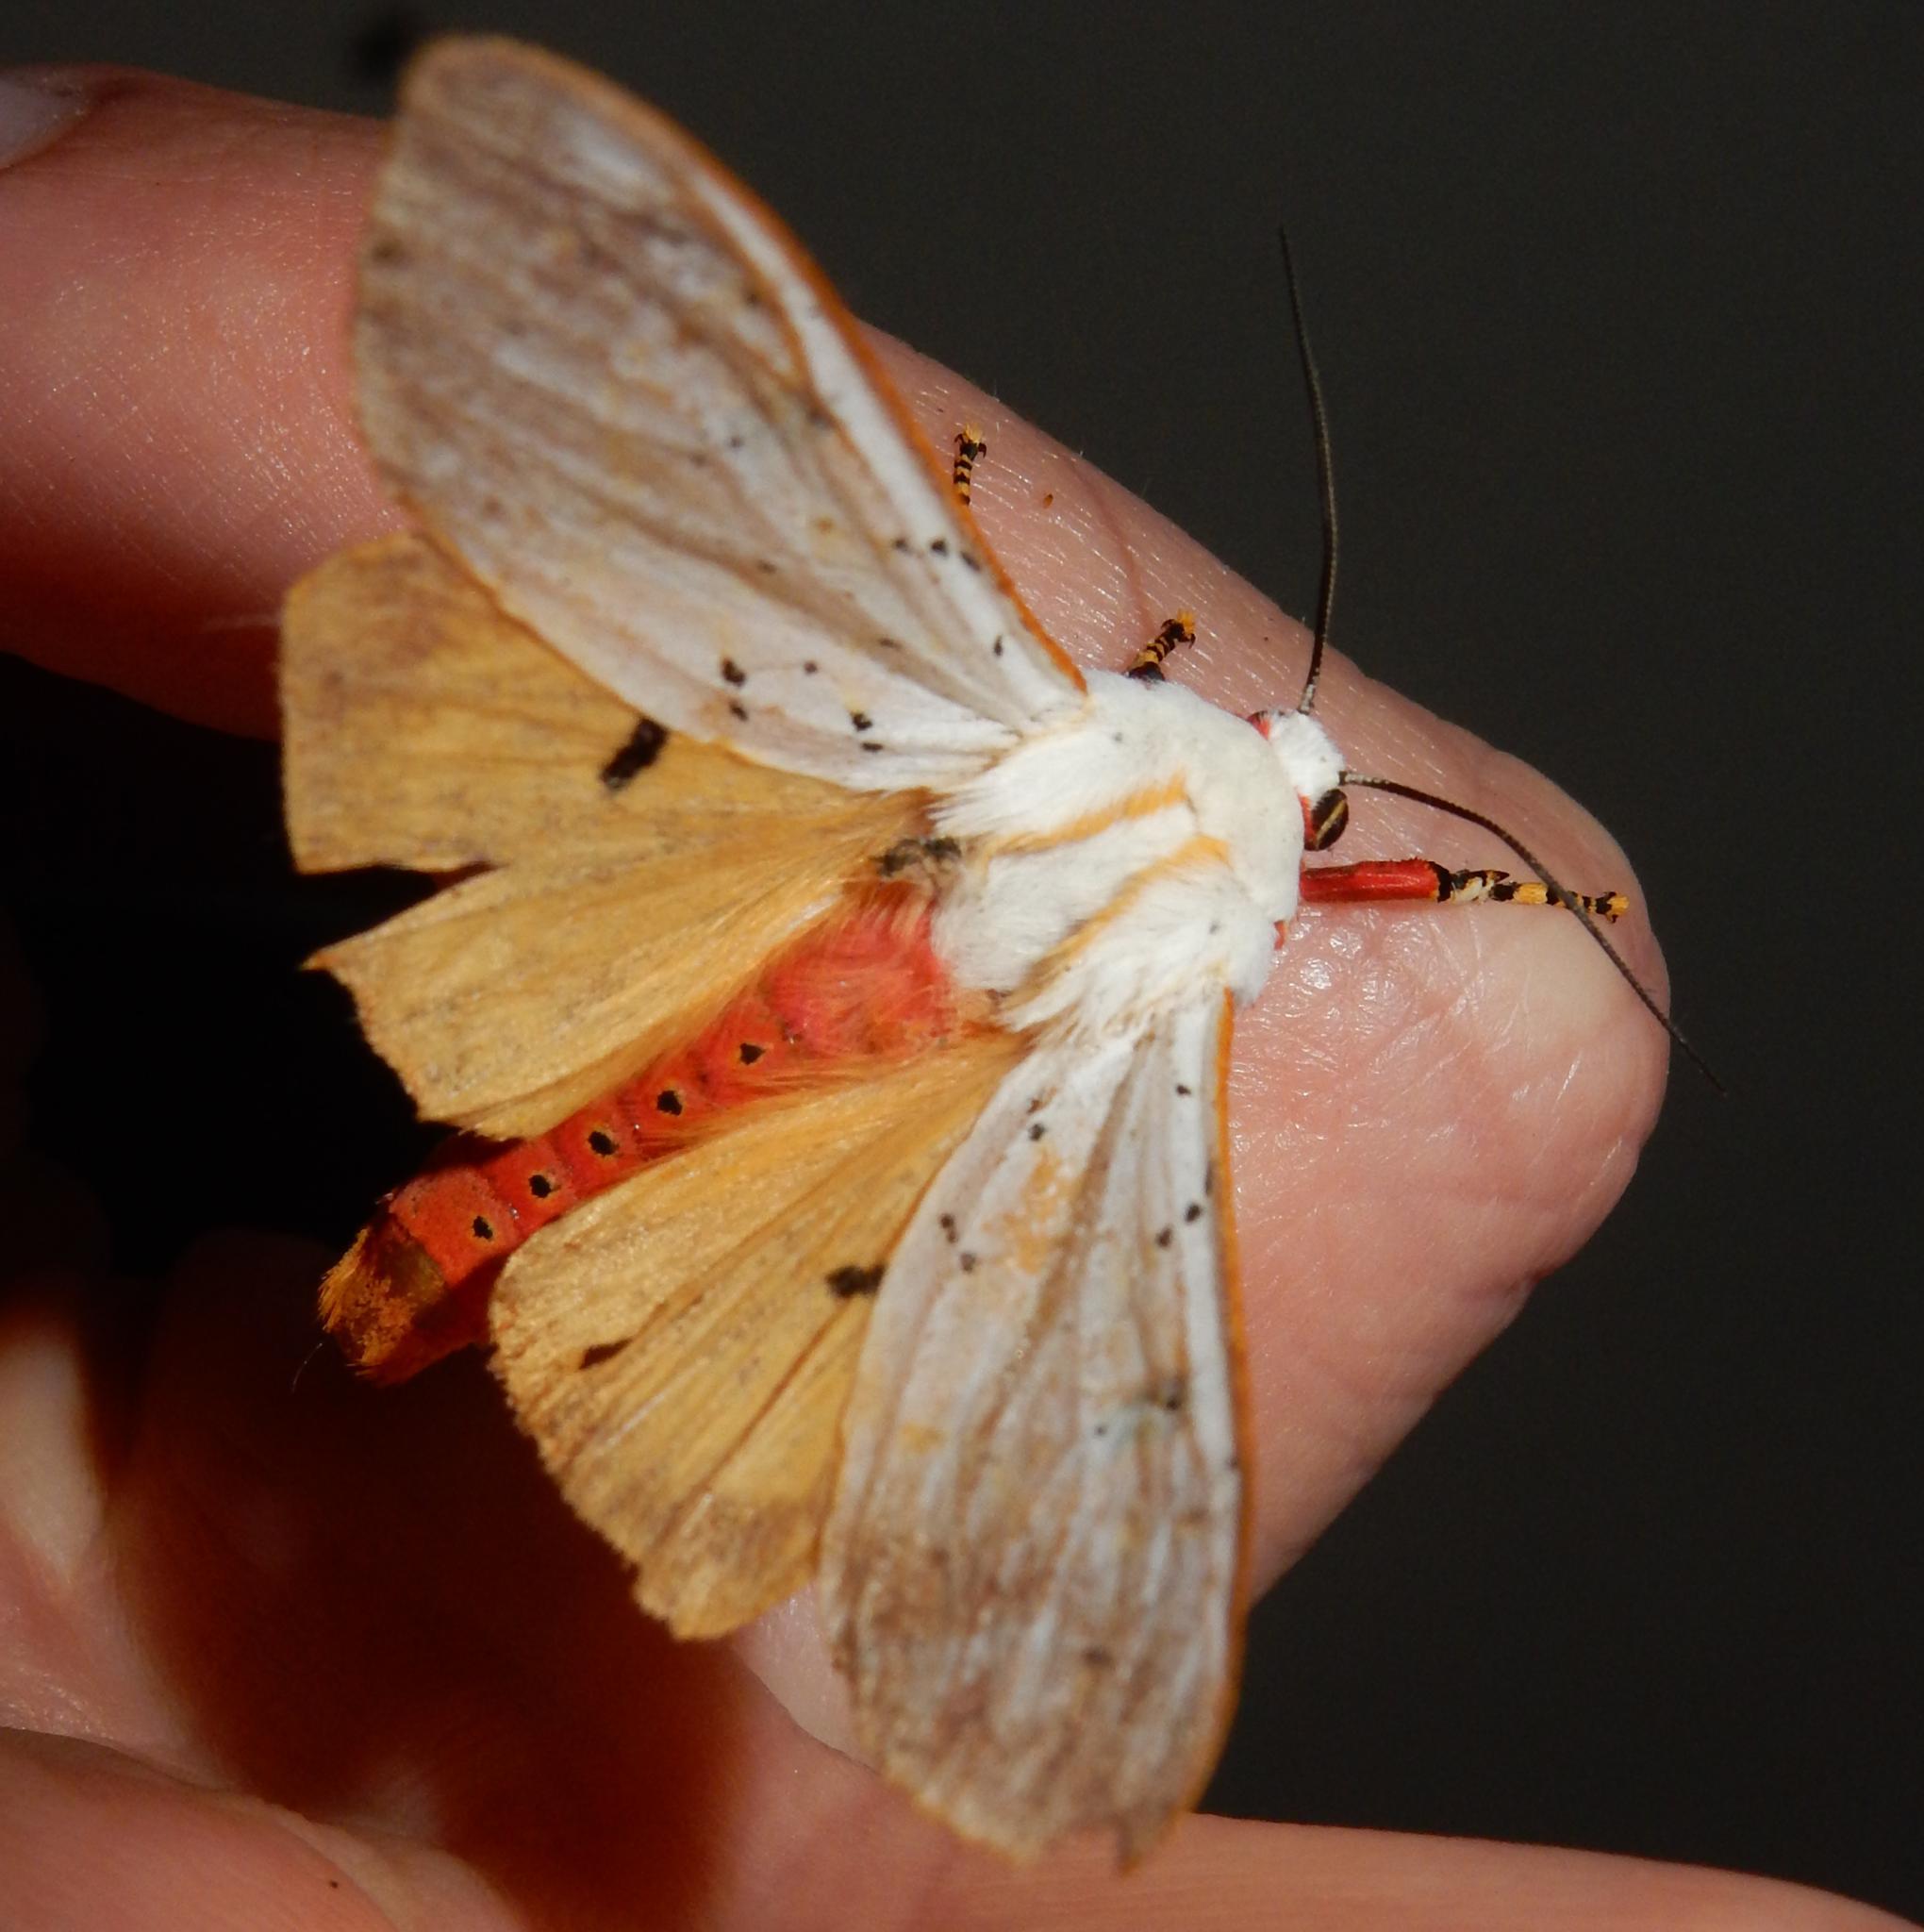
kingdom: Animalia
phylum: Arthropoda
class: Insecta
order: Lepidoptera
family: Erebidae
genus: Rhodogastria
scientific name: Rhodogastria similis
